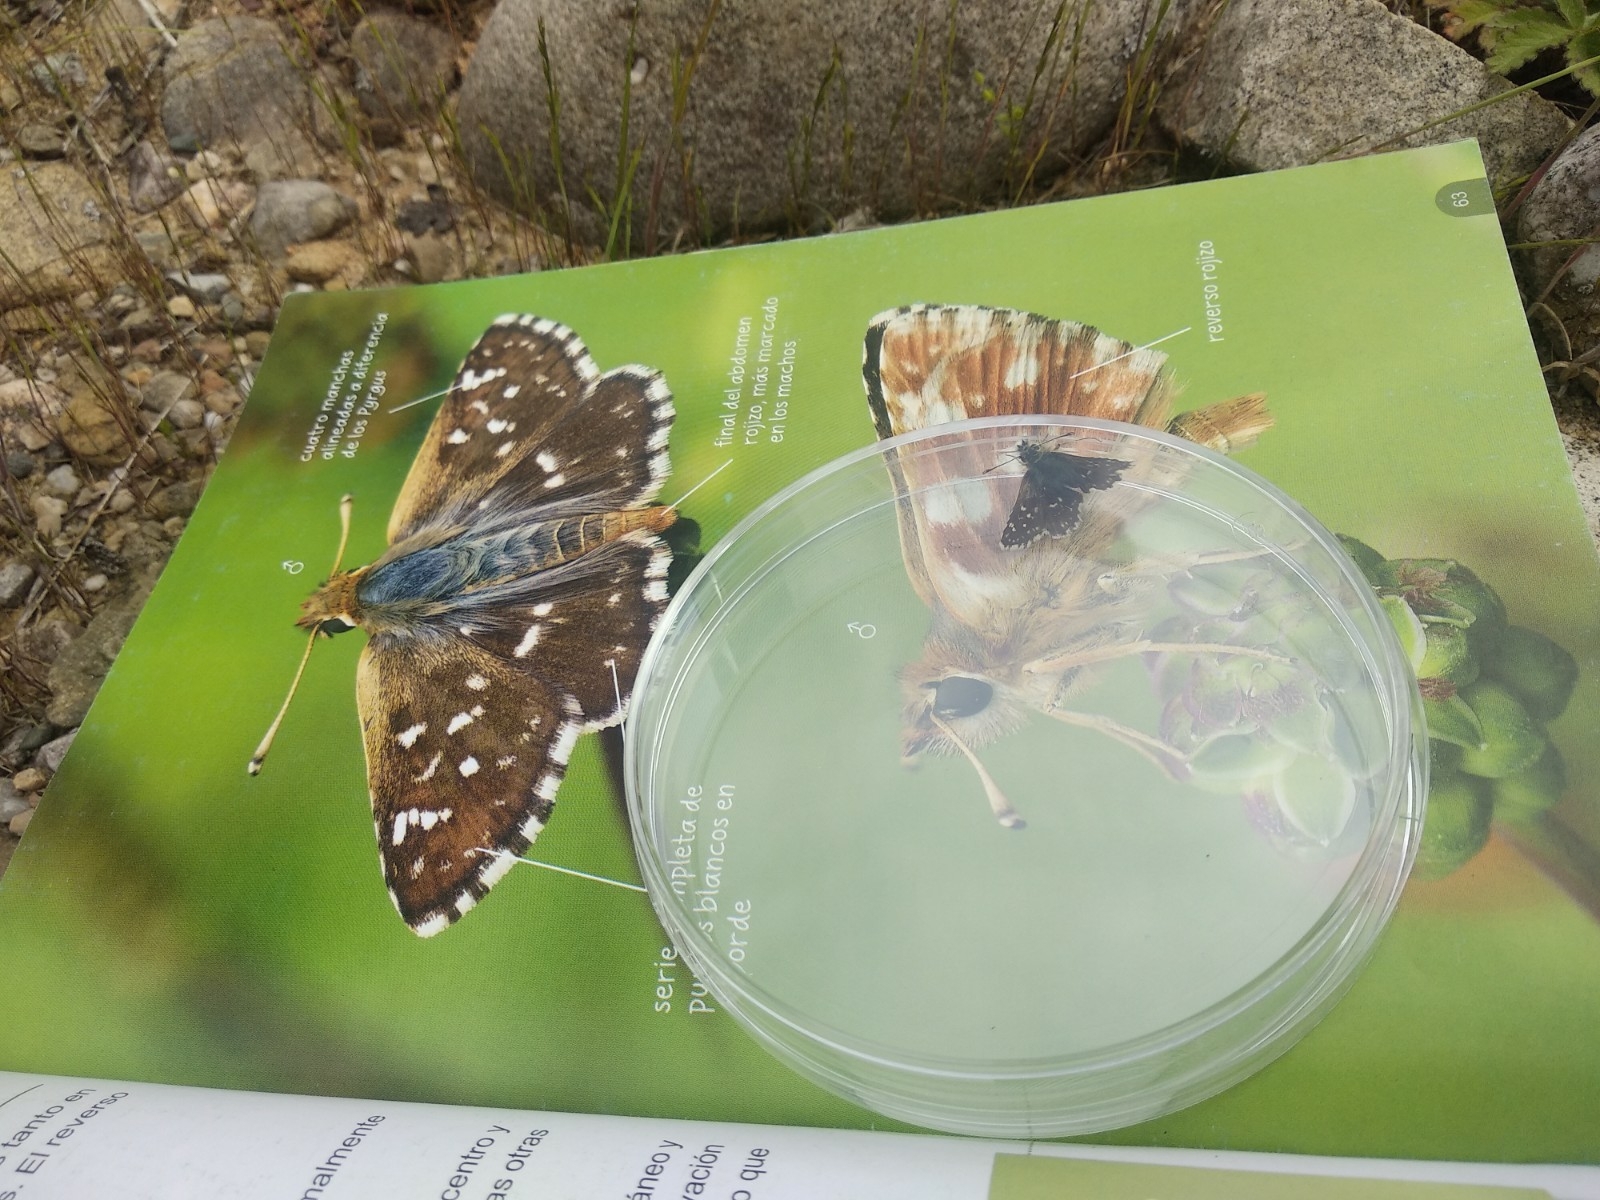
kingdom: Animalia
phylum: Arthropoda
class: Insecta
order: Lepidoptera
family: Hesperiidae
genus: Spialia
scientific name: Spialia sertorius
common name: Red underwing skipper
